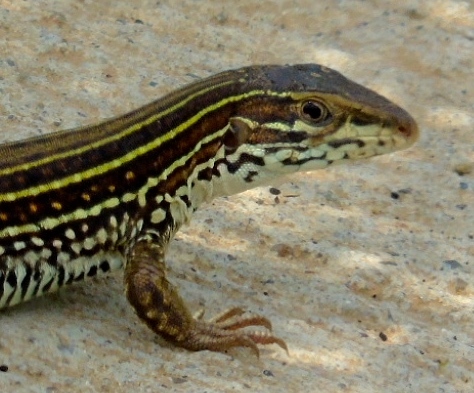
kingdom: Animalia
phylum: Chordata
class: Squamata
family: Teiidae
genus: Aspidoscelis
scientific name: Aspidoscelis costatus
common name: Western mexico whiptail
